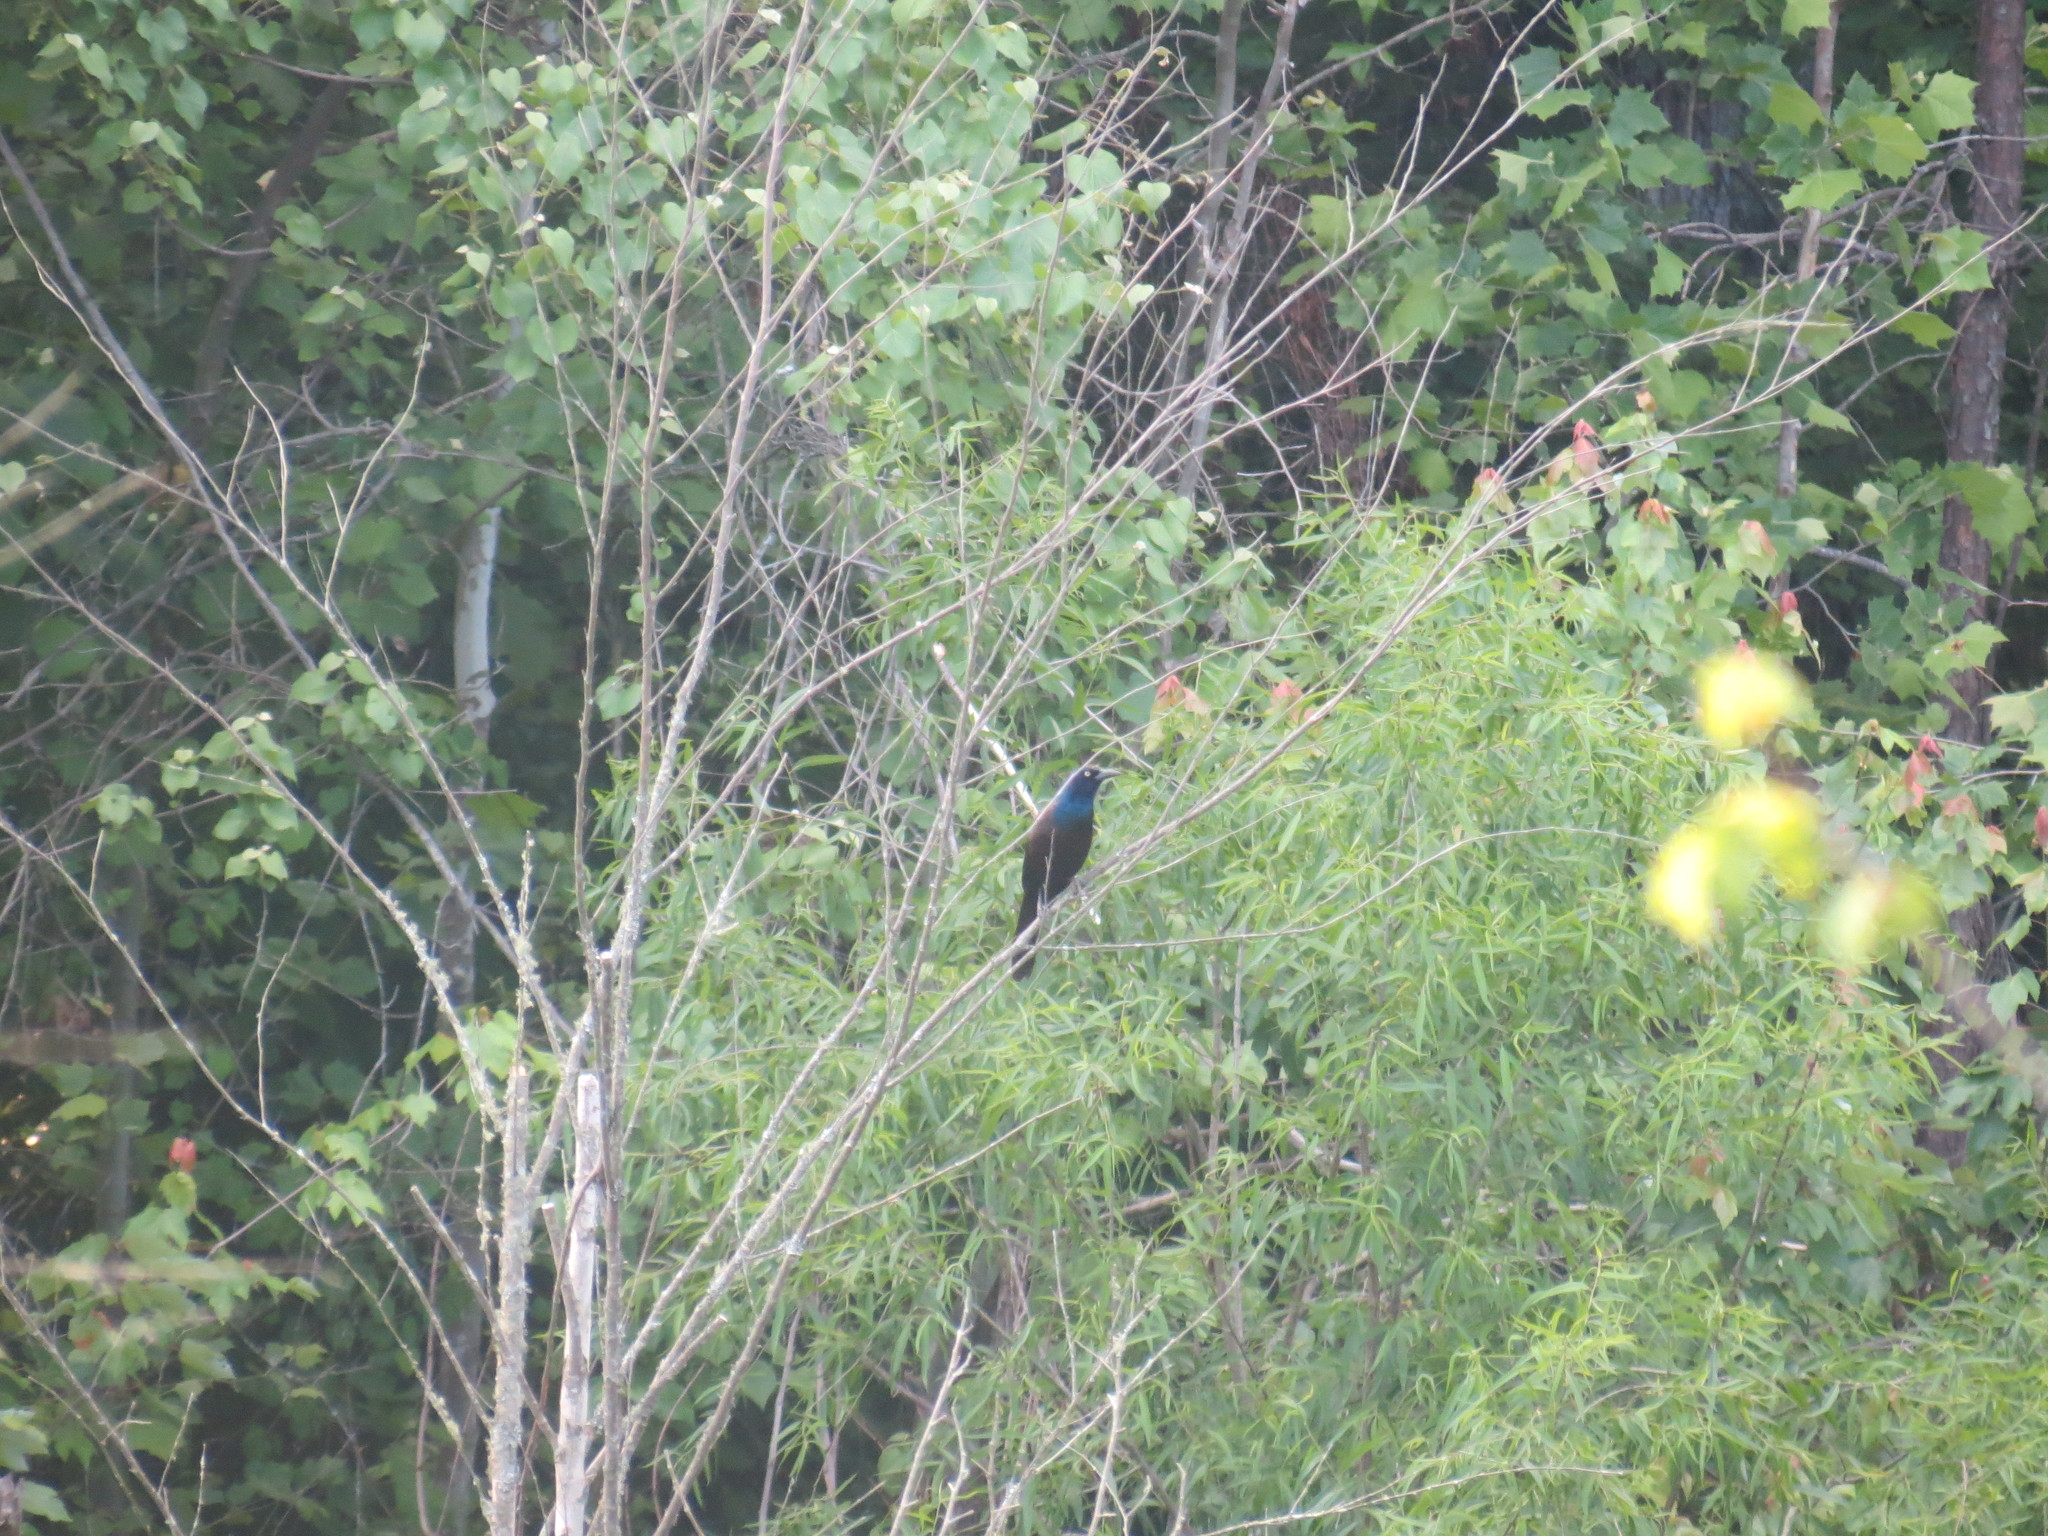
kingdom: Animalia
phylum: Chordata
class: Aves
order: Passeriformes
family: Icteridae
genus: Quiscalus
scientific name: Quiscalus quiscula
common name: Common grackle
